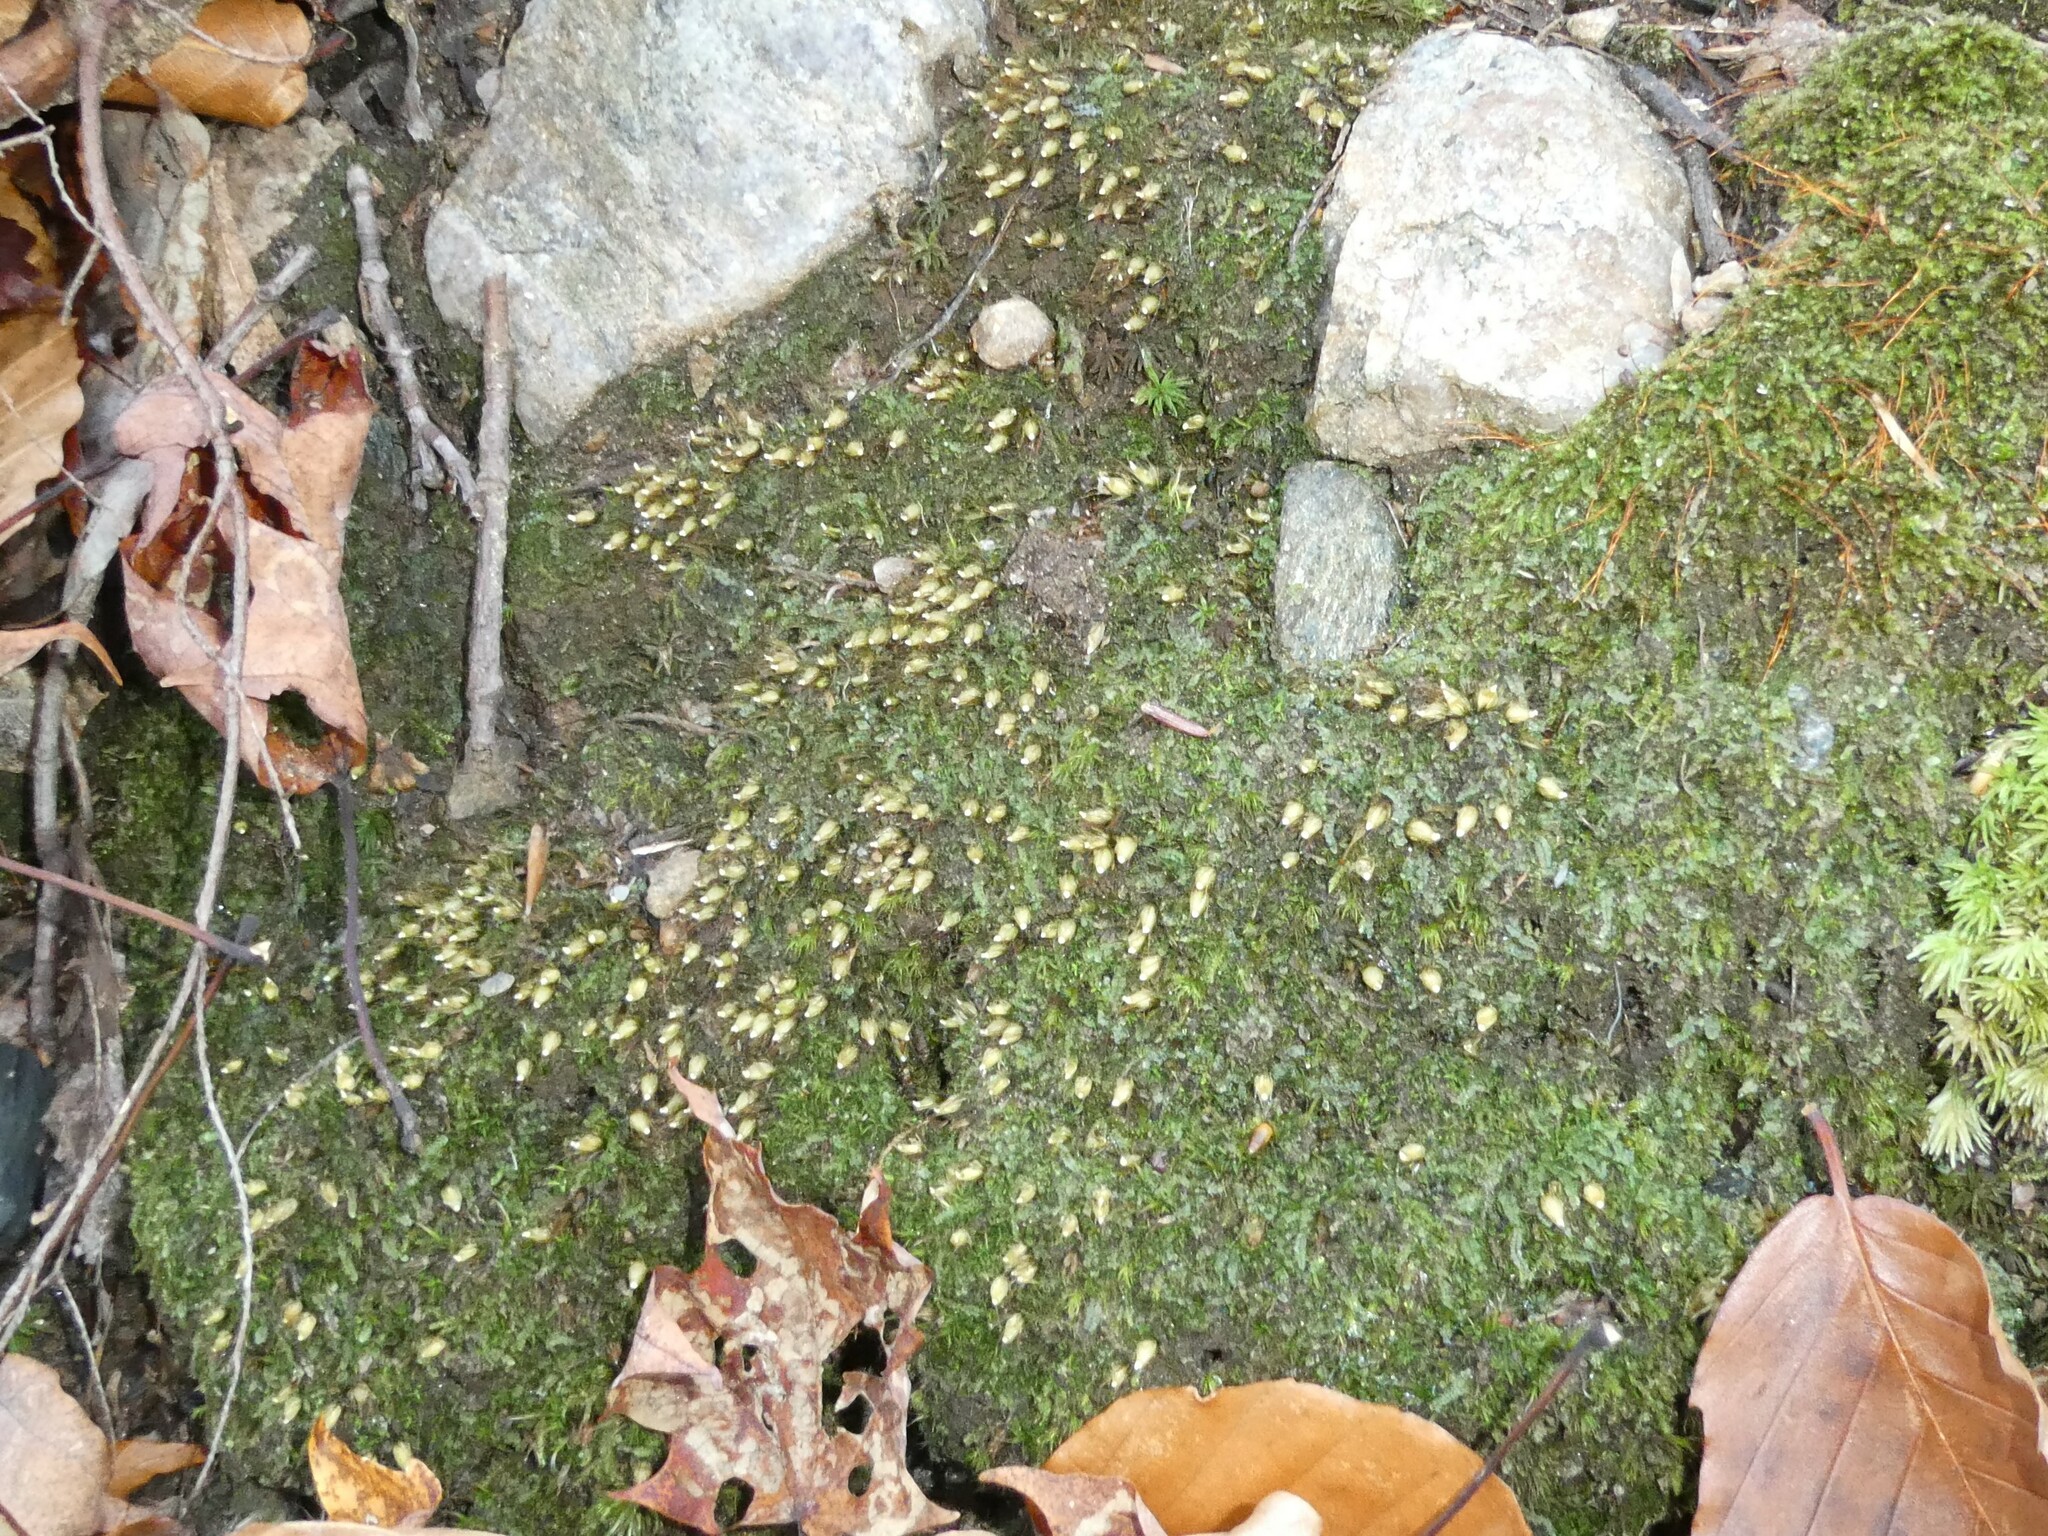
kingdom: Plantae
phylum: Bryophyta
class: Bryopsida
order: Diphysciales
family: Diphysciaceae
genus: Diphyscium
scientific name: Diphyscium foliosum
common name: Nut moss
